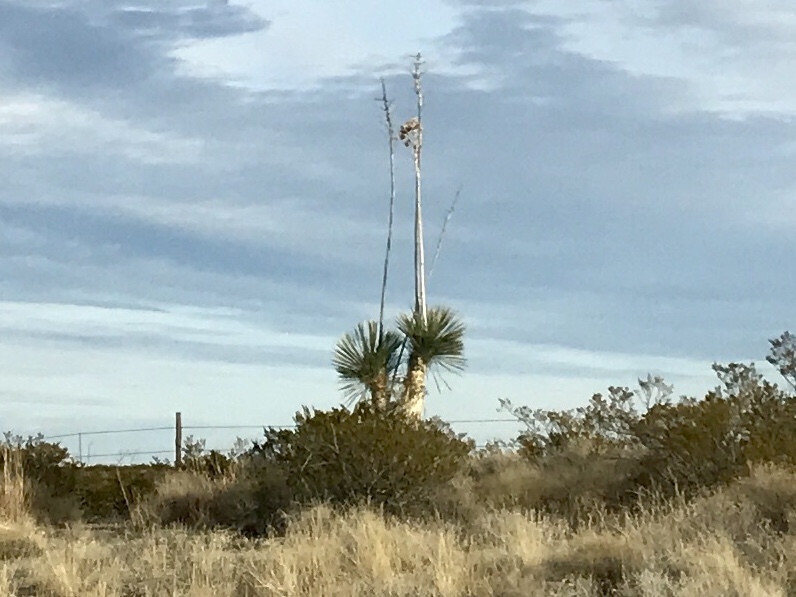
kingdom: Plantae
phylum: Tracheophyta
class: Liliopsida
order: Asparagales
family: Asparagaceae
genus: Yucca
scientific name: Yucca elata
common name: Palmella
